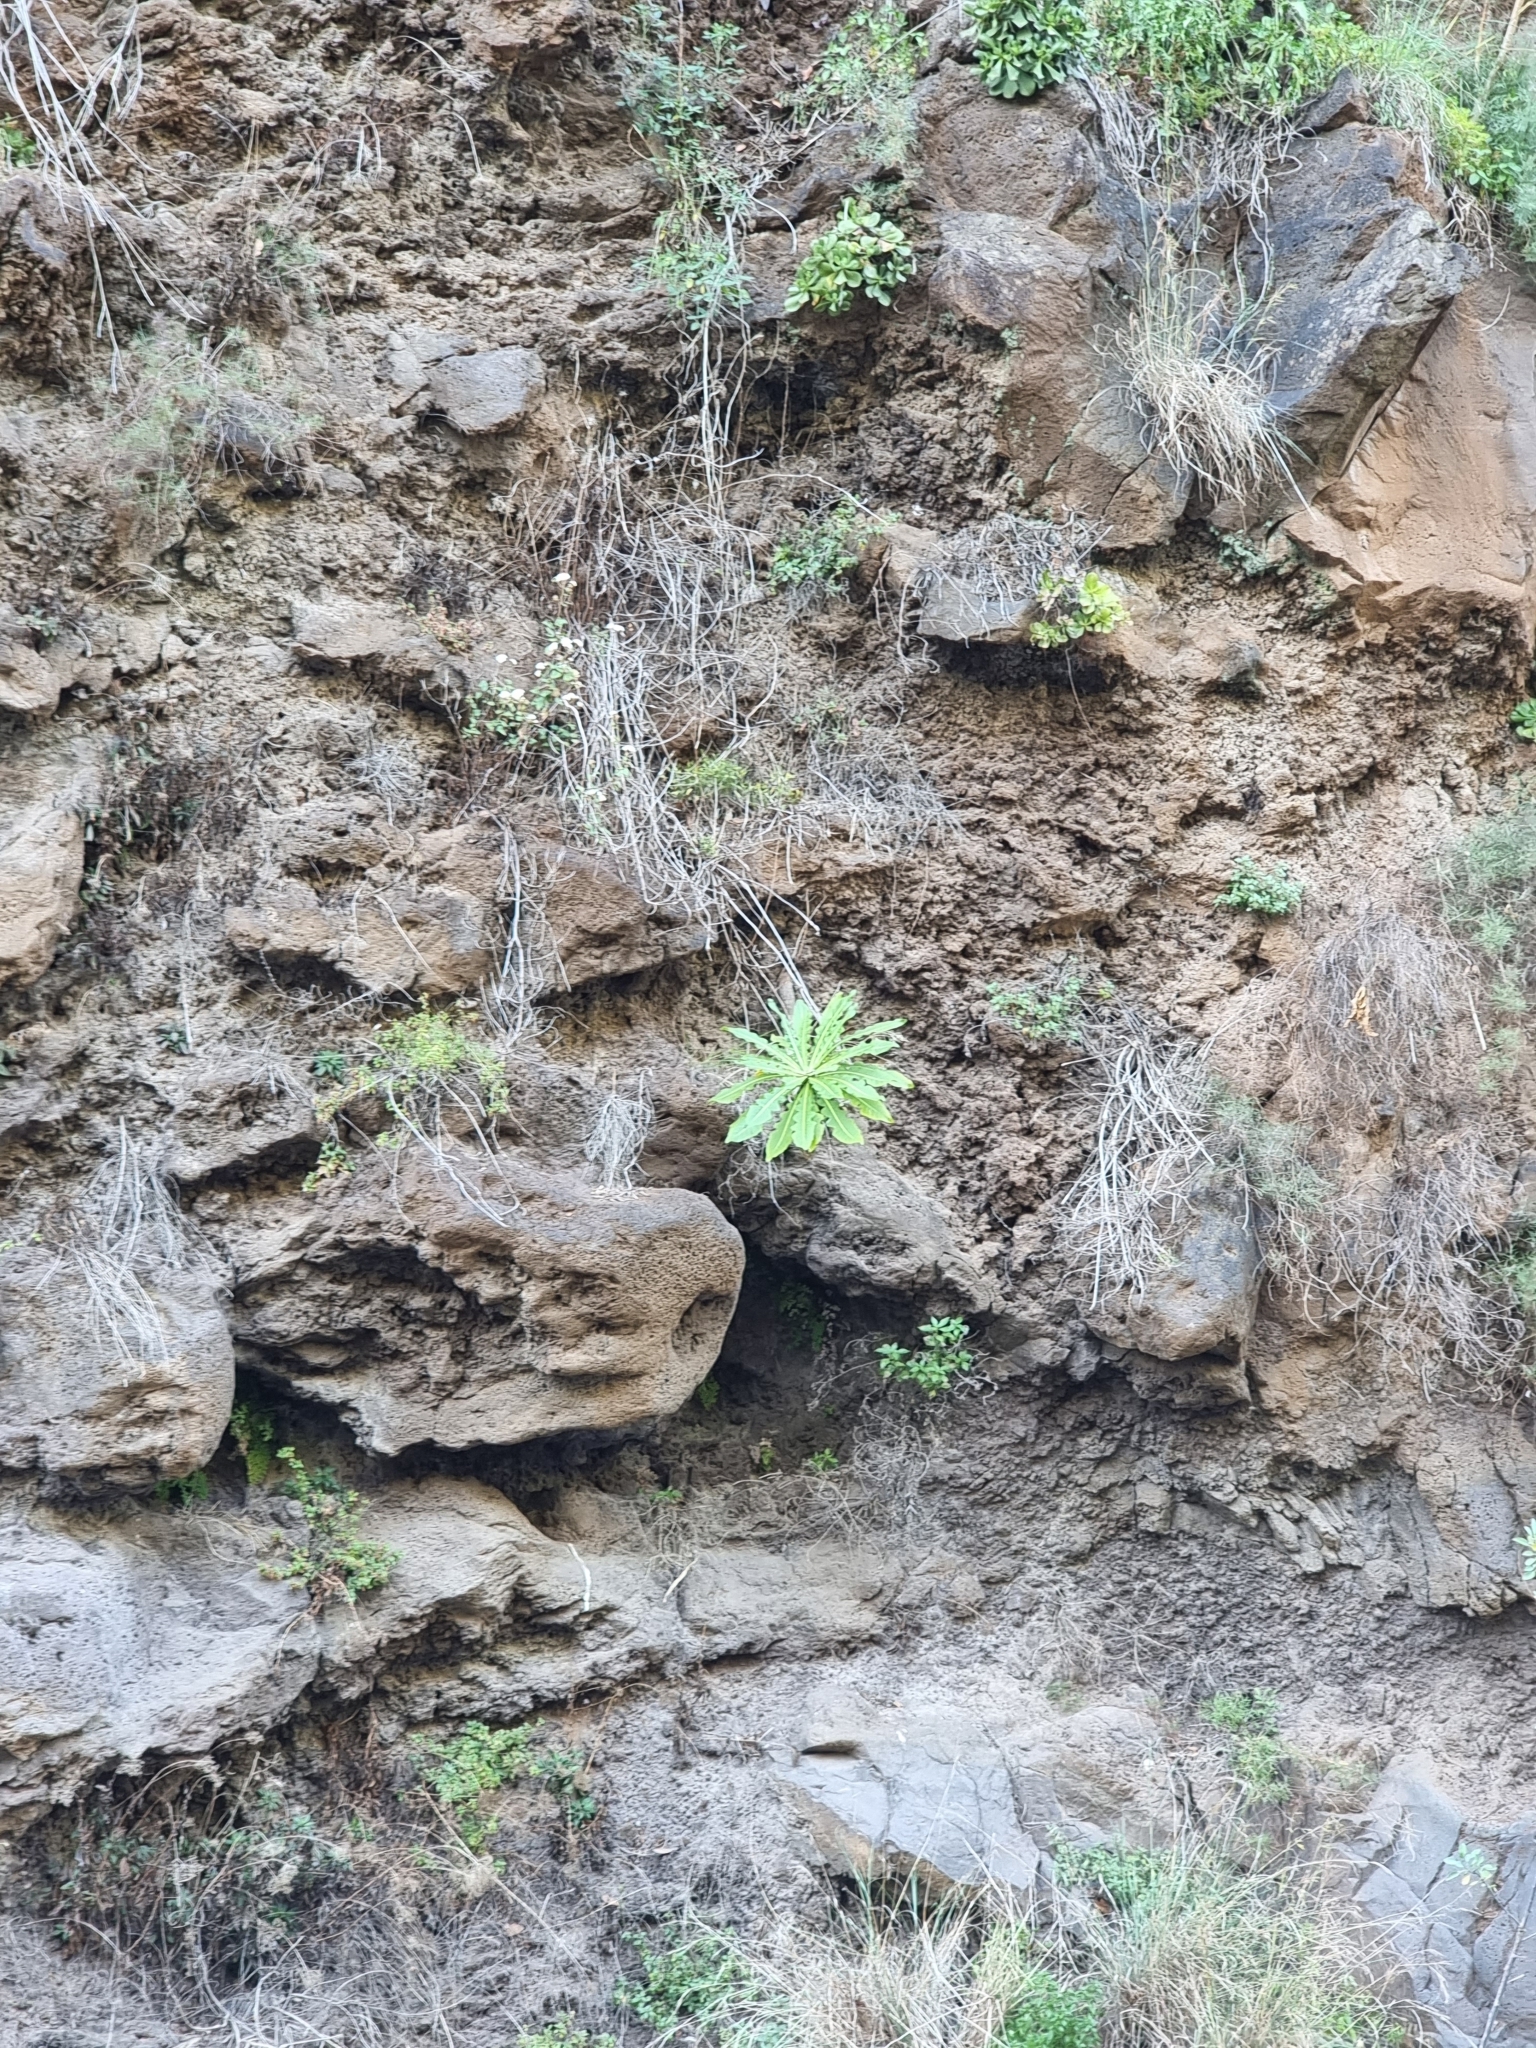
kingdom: Plantae
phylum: Tracheophyta
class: Magnoliopsida
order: Asterales
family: Asteraceae
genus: Sonchus
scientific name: Sonchus fruticosus
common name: Shrubby sow-thistle
